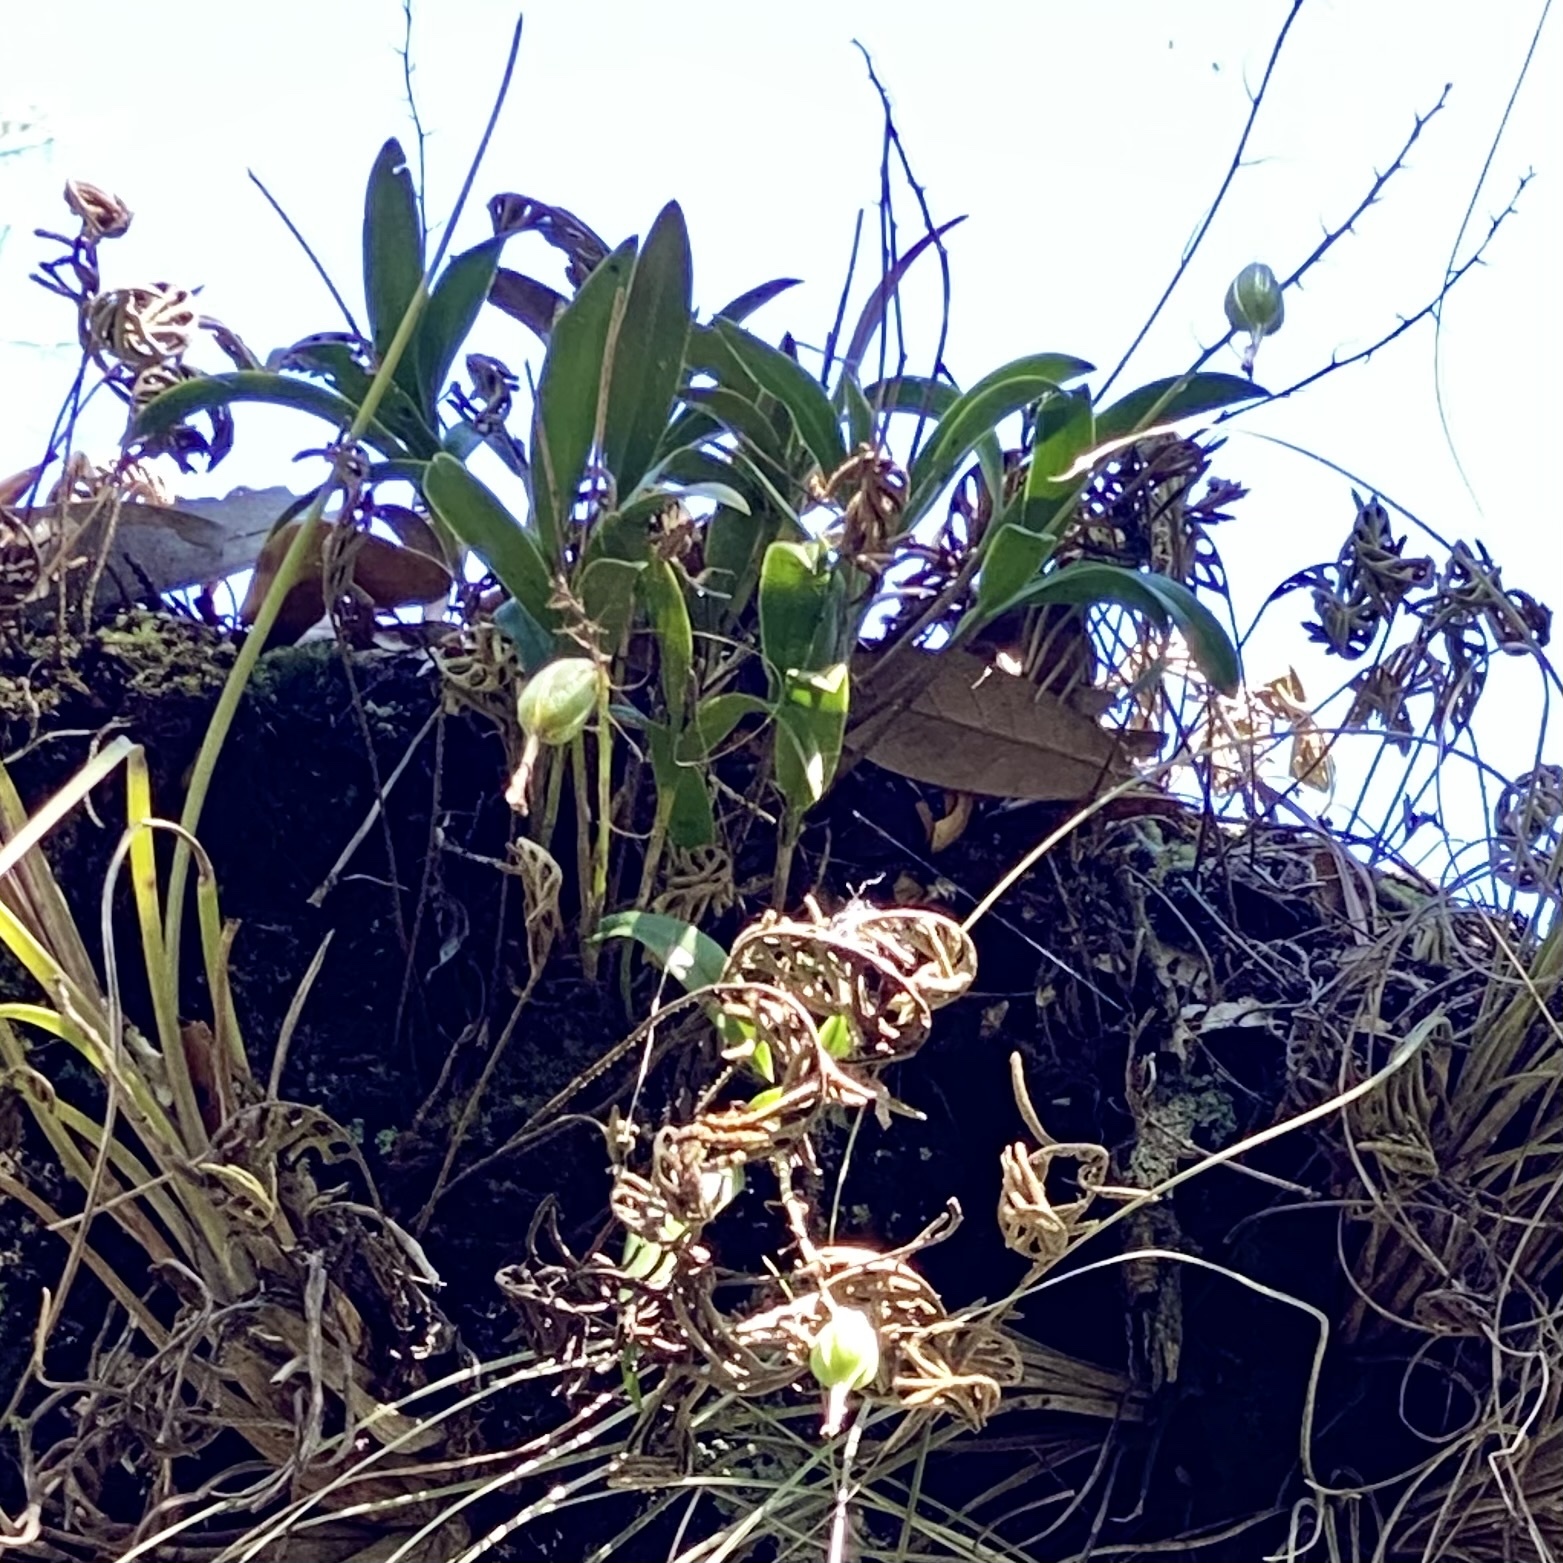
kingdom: Plantae
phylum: Tracheophyta
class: Liliopsida
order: Asparagales
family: Orchidaceae
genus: Epidendrum
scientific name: Epidendrum conopseum
